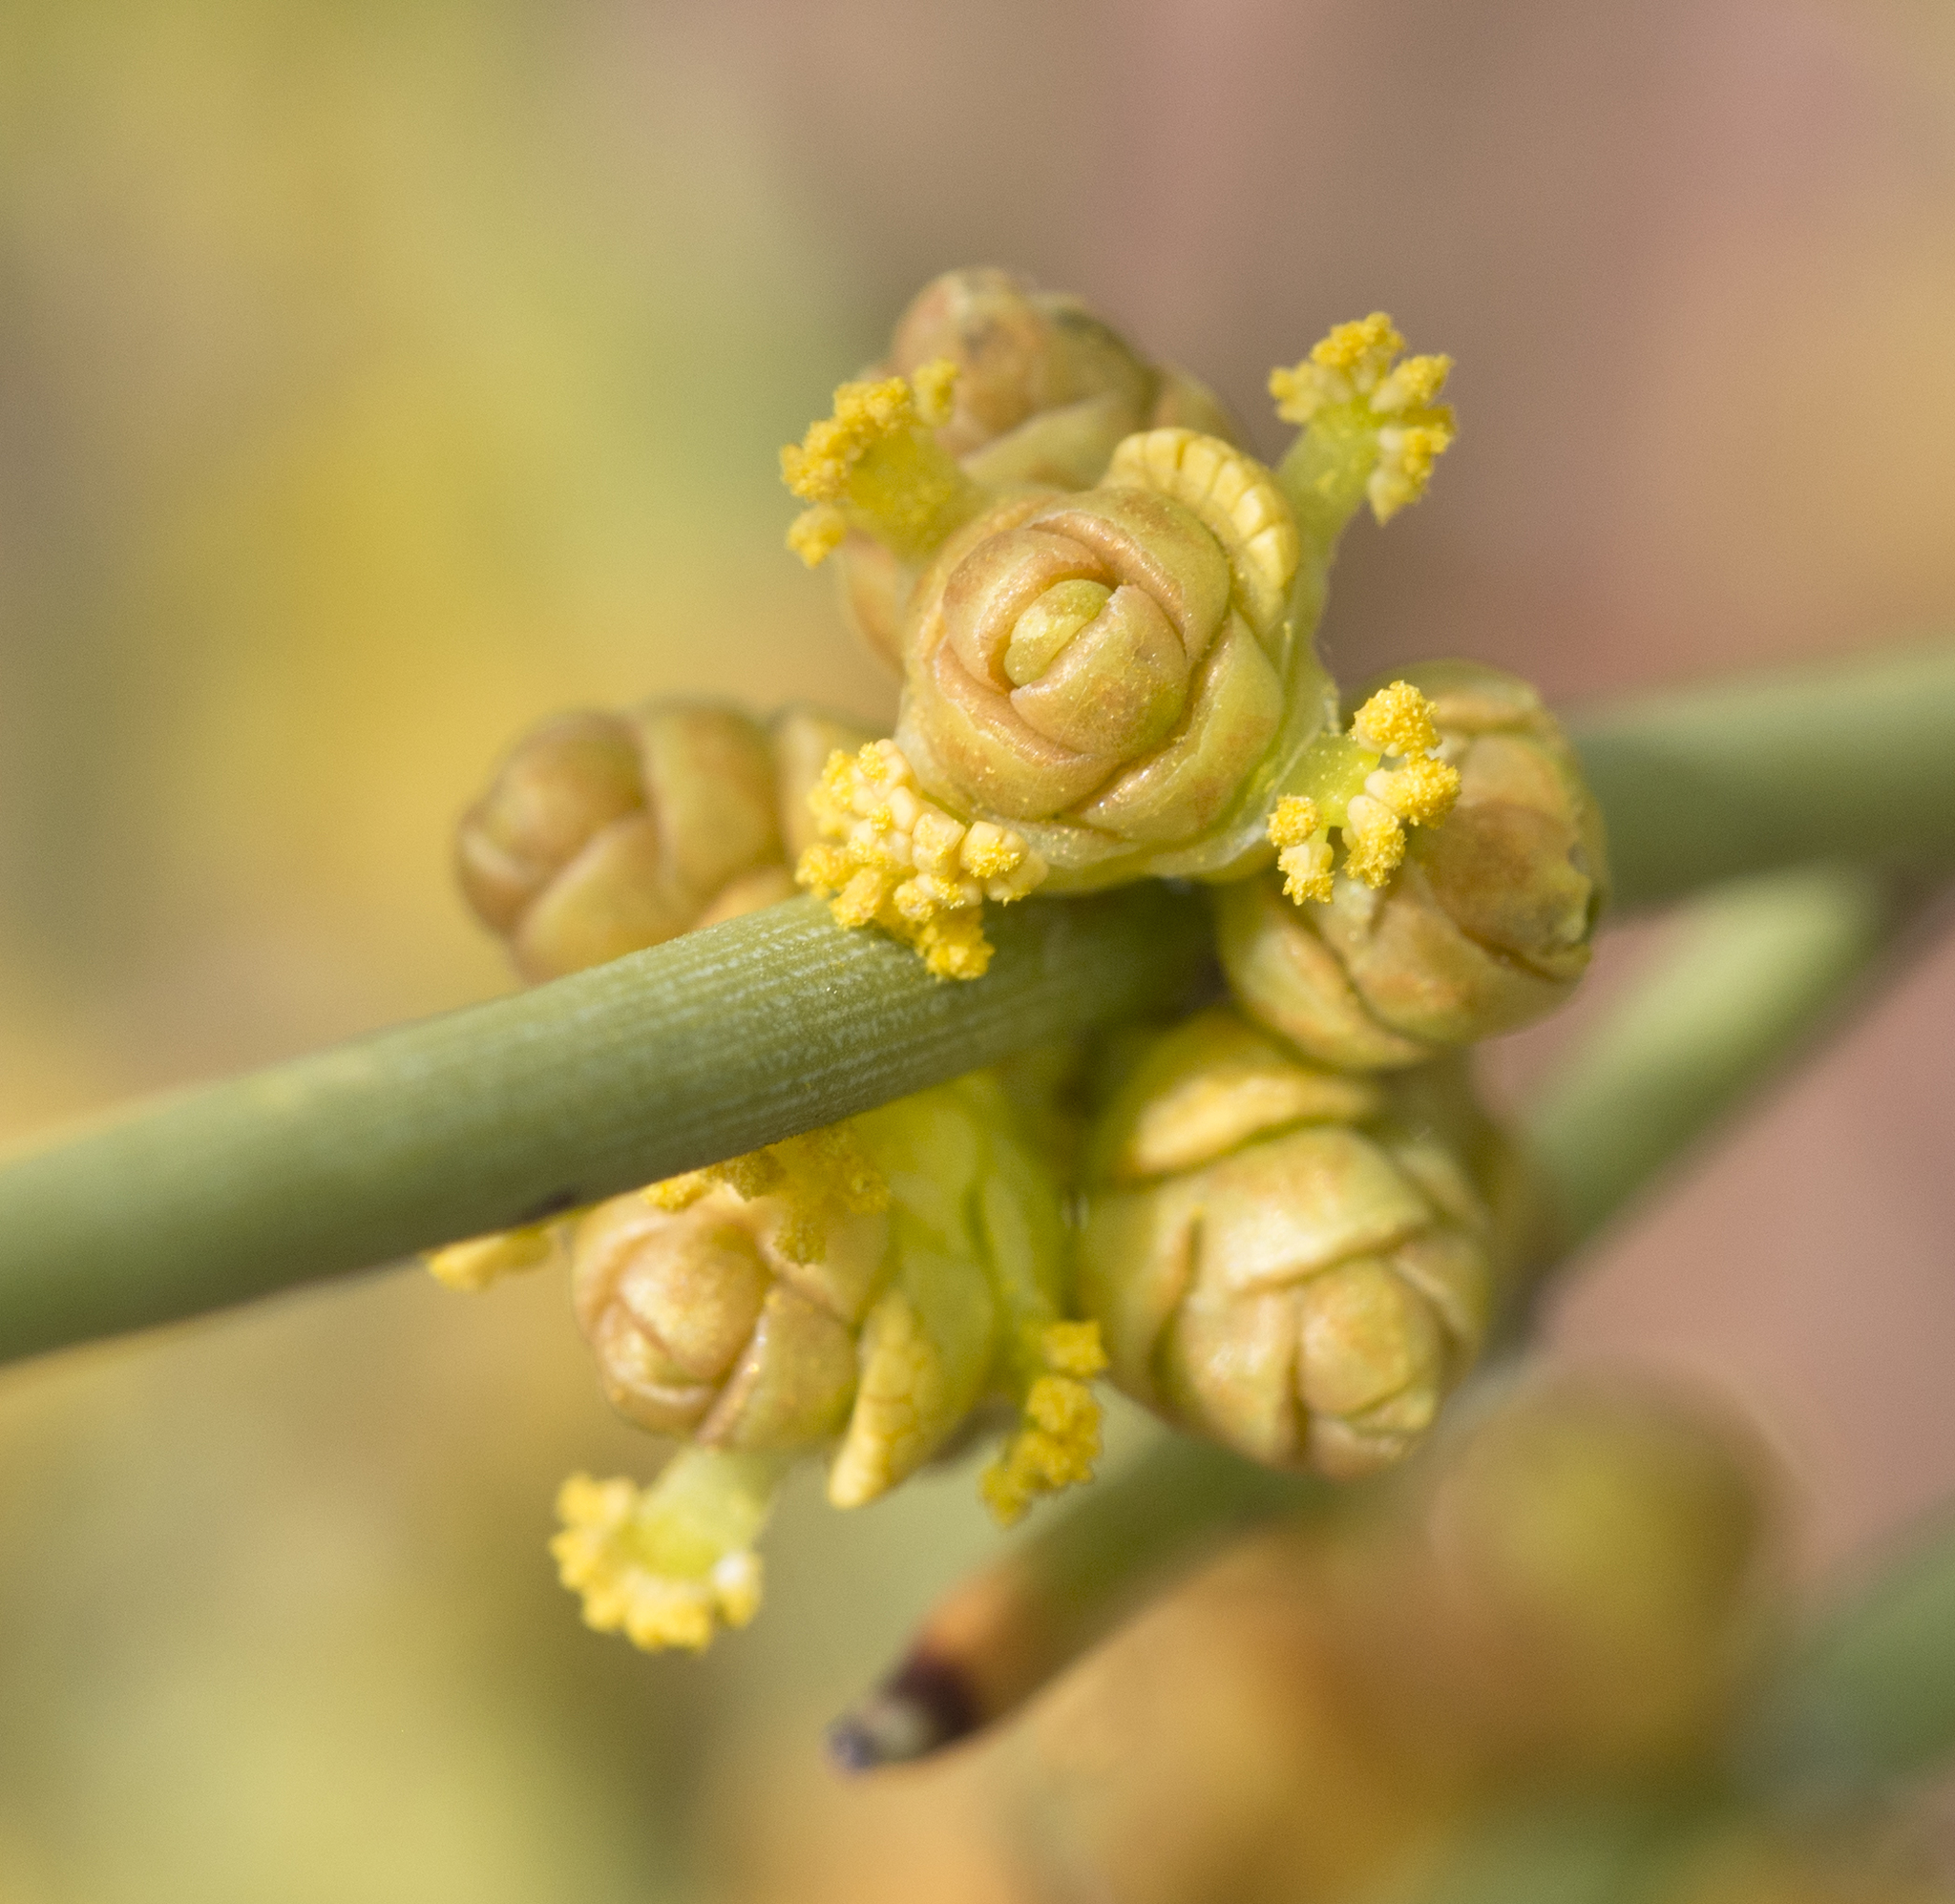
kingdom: Plantae
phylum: Tracheophyta
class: Gnetopsida
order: Ephedrales
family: Ephedraceae
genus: Ephedra
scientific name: Ephedra viridis
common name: Green ephedra
